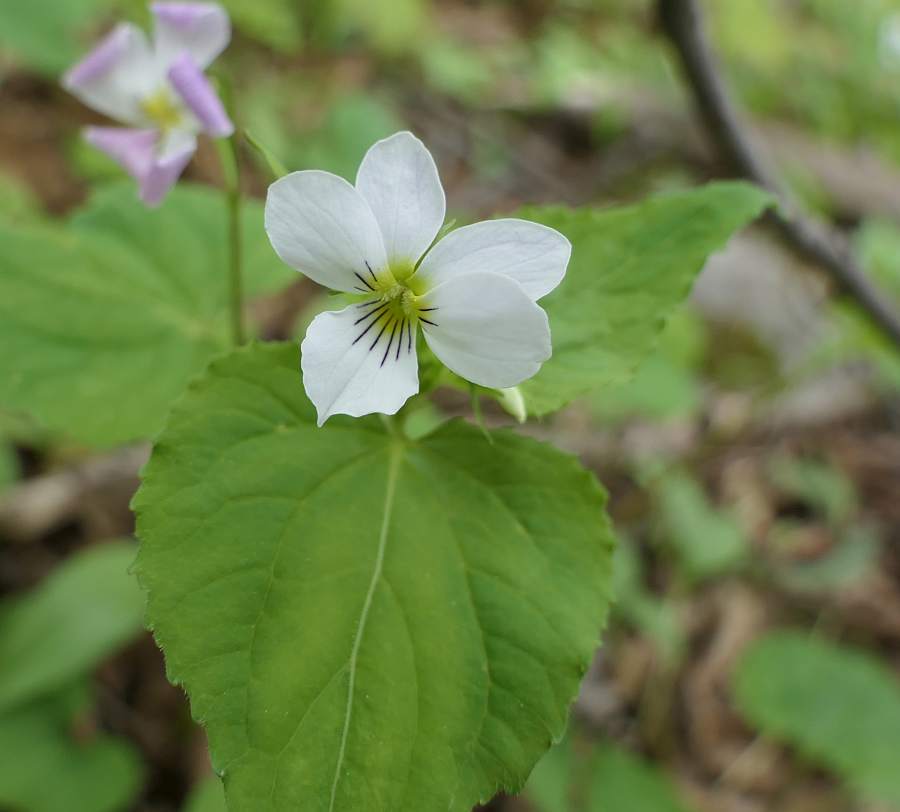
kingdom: Plantae
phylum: Tracheophyta
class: Magnoliopsida
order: Malpighiales
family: Violaceae
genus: Viola
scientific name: Viola canadensis
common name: Canada violet
